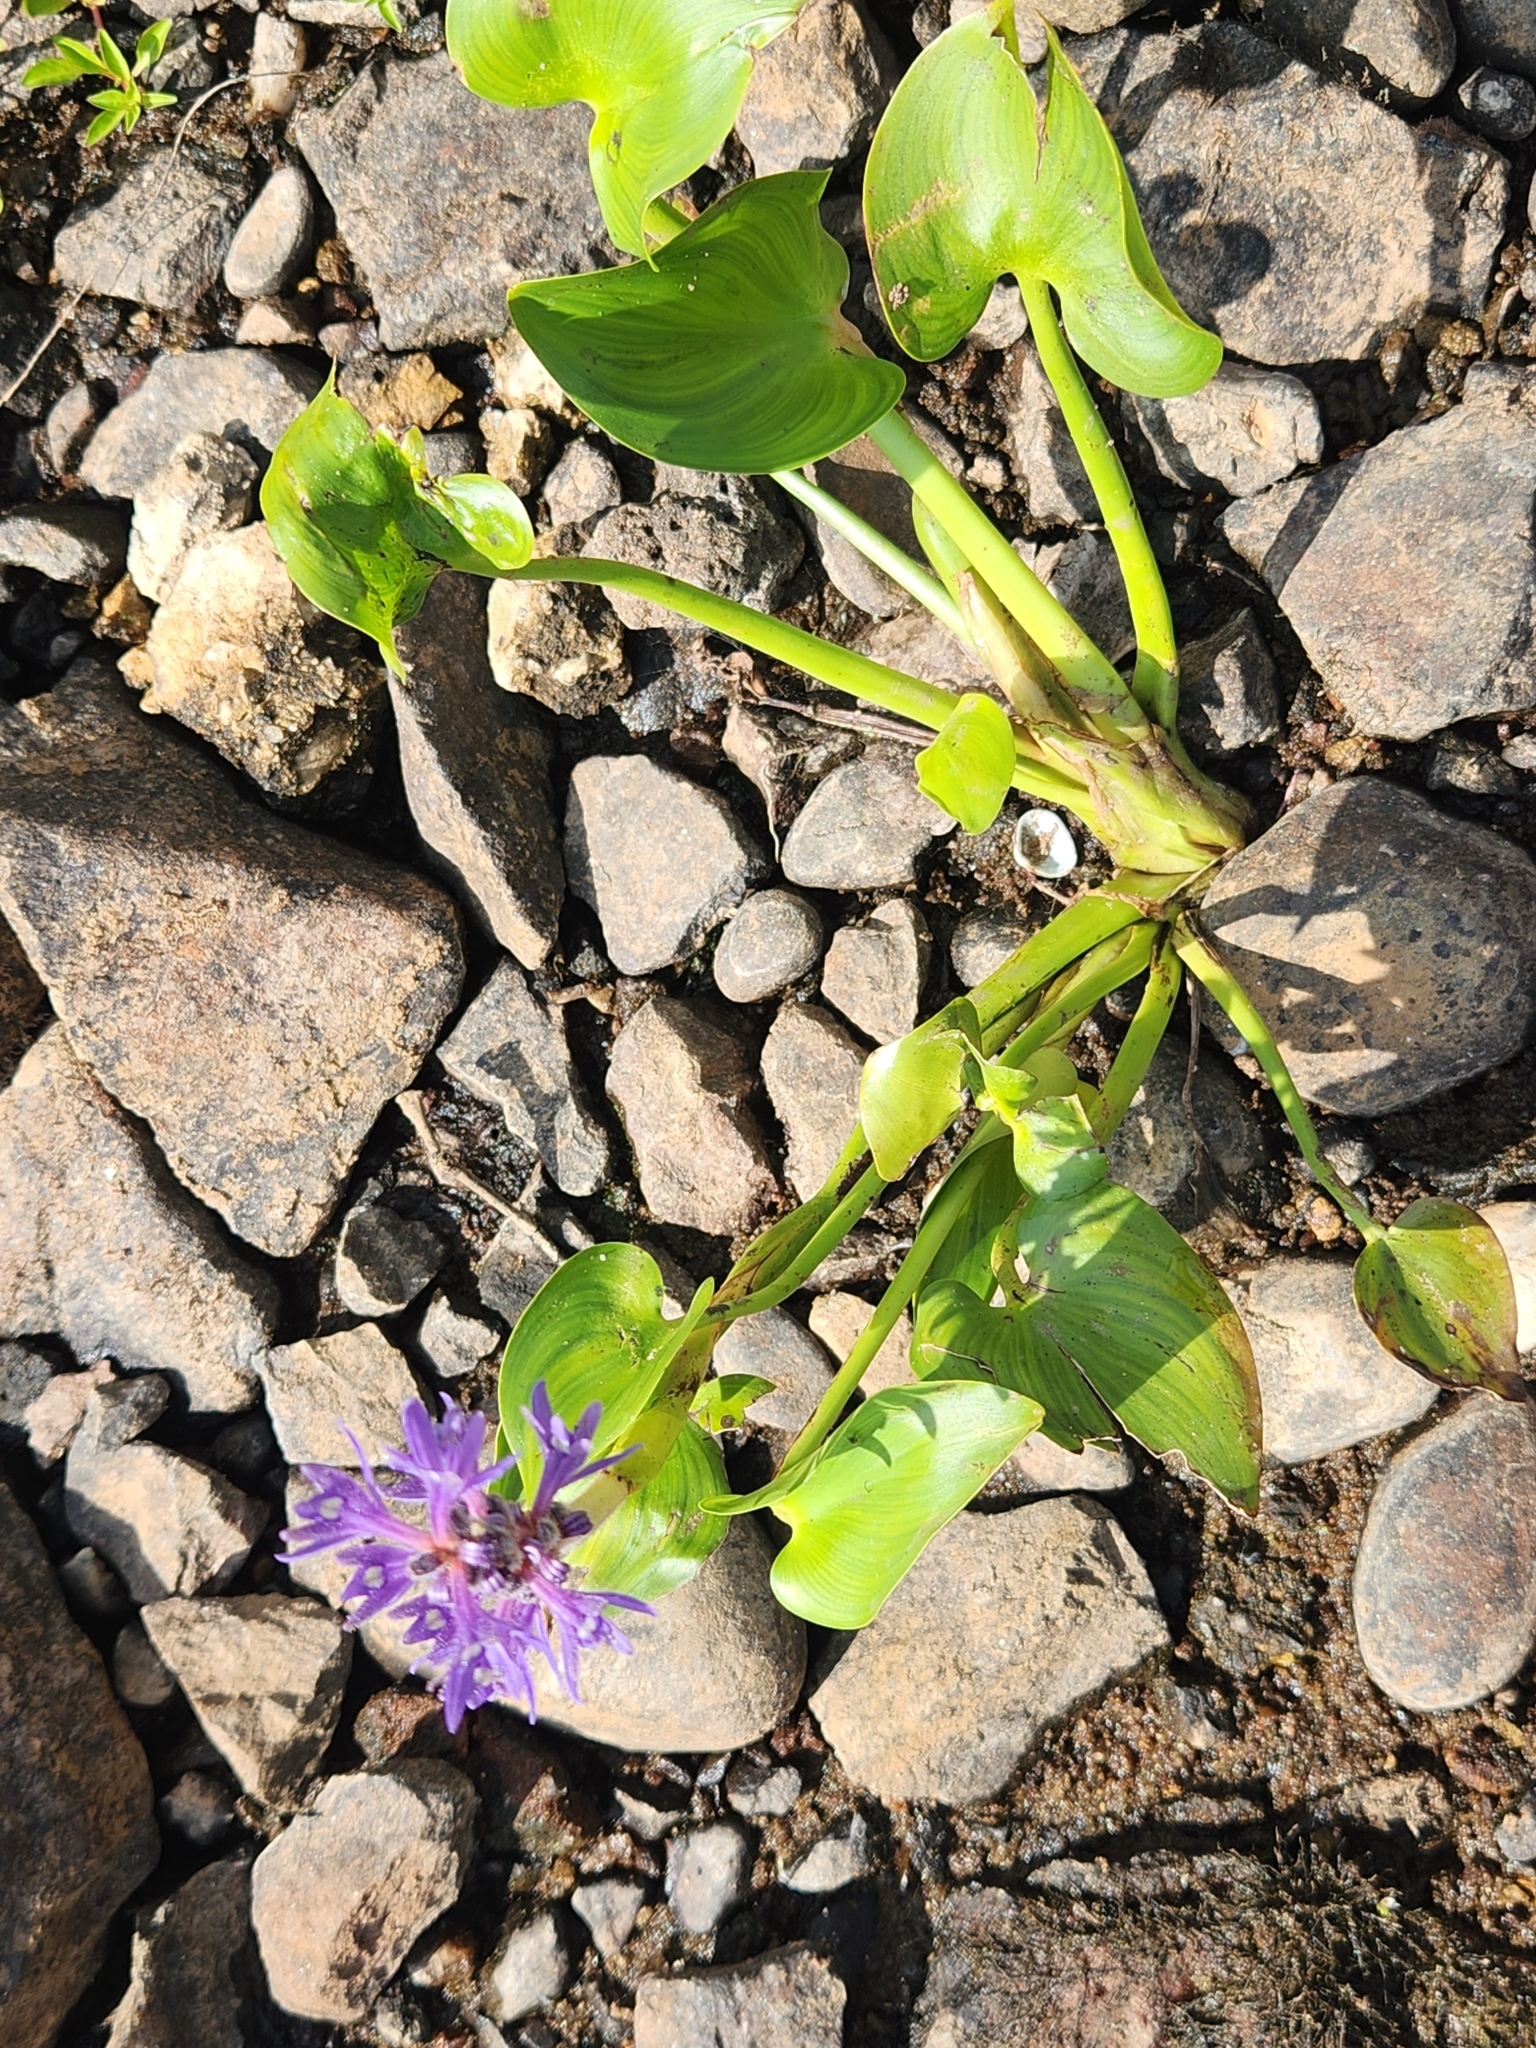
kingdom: Plantae
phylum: Tracheophyta
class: Liliopsida
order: Commelinales
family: Pontederiaceae
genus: Pontederia
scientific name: Pontederia cordata
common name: Pickerelweed
